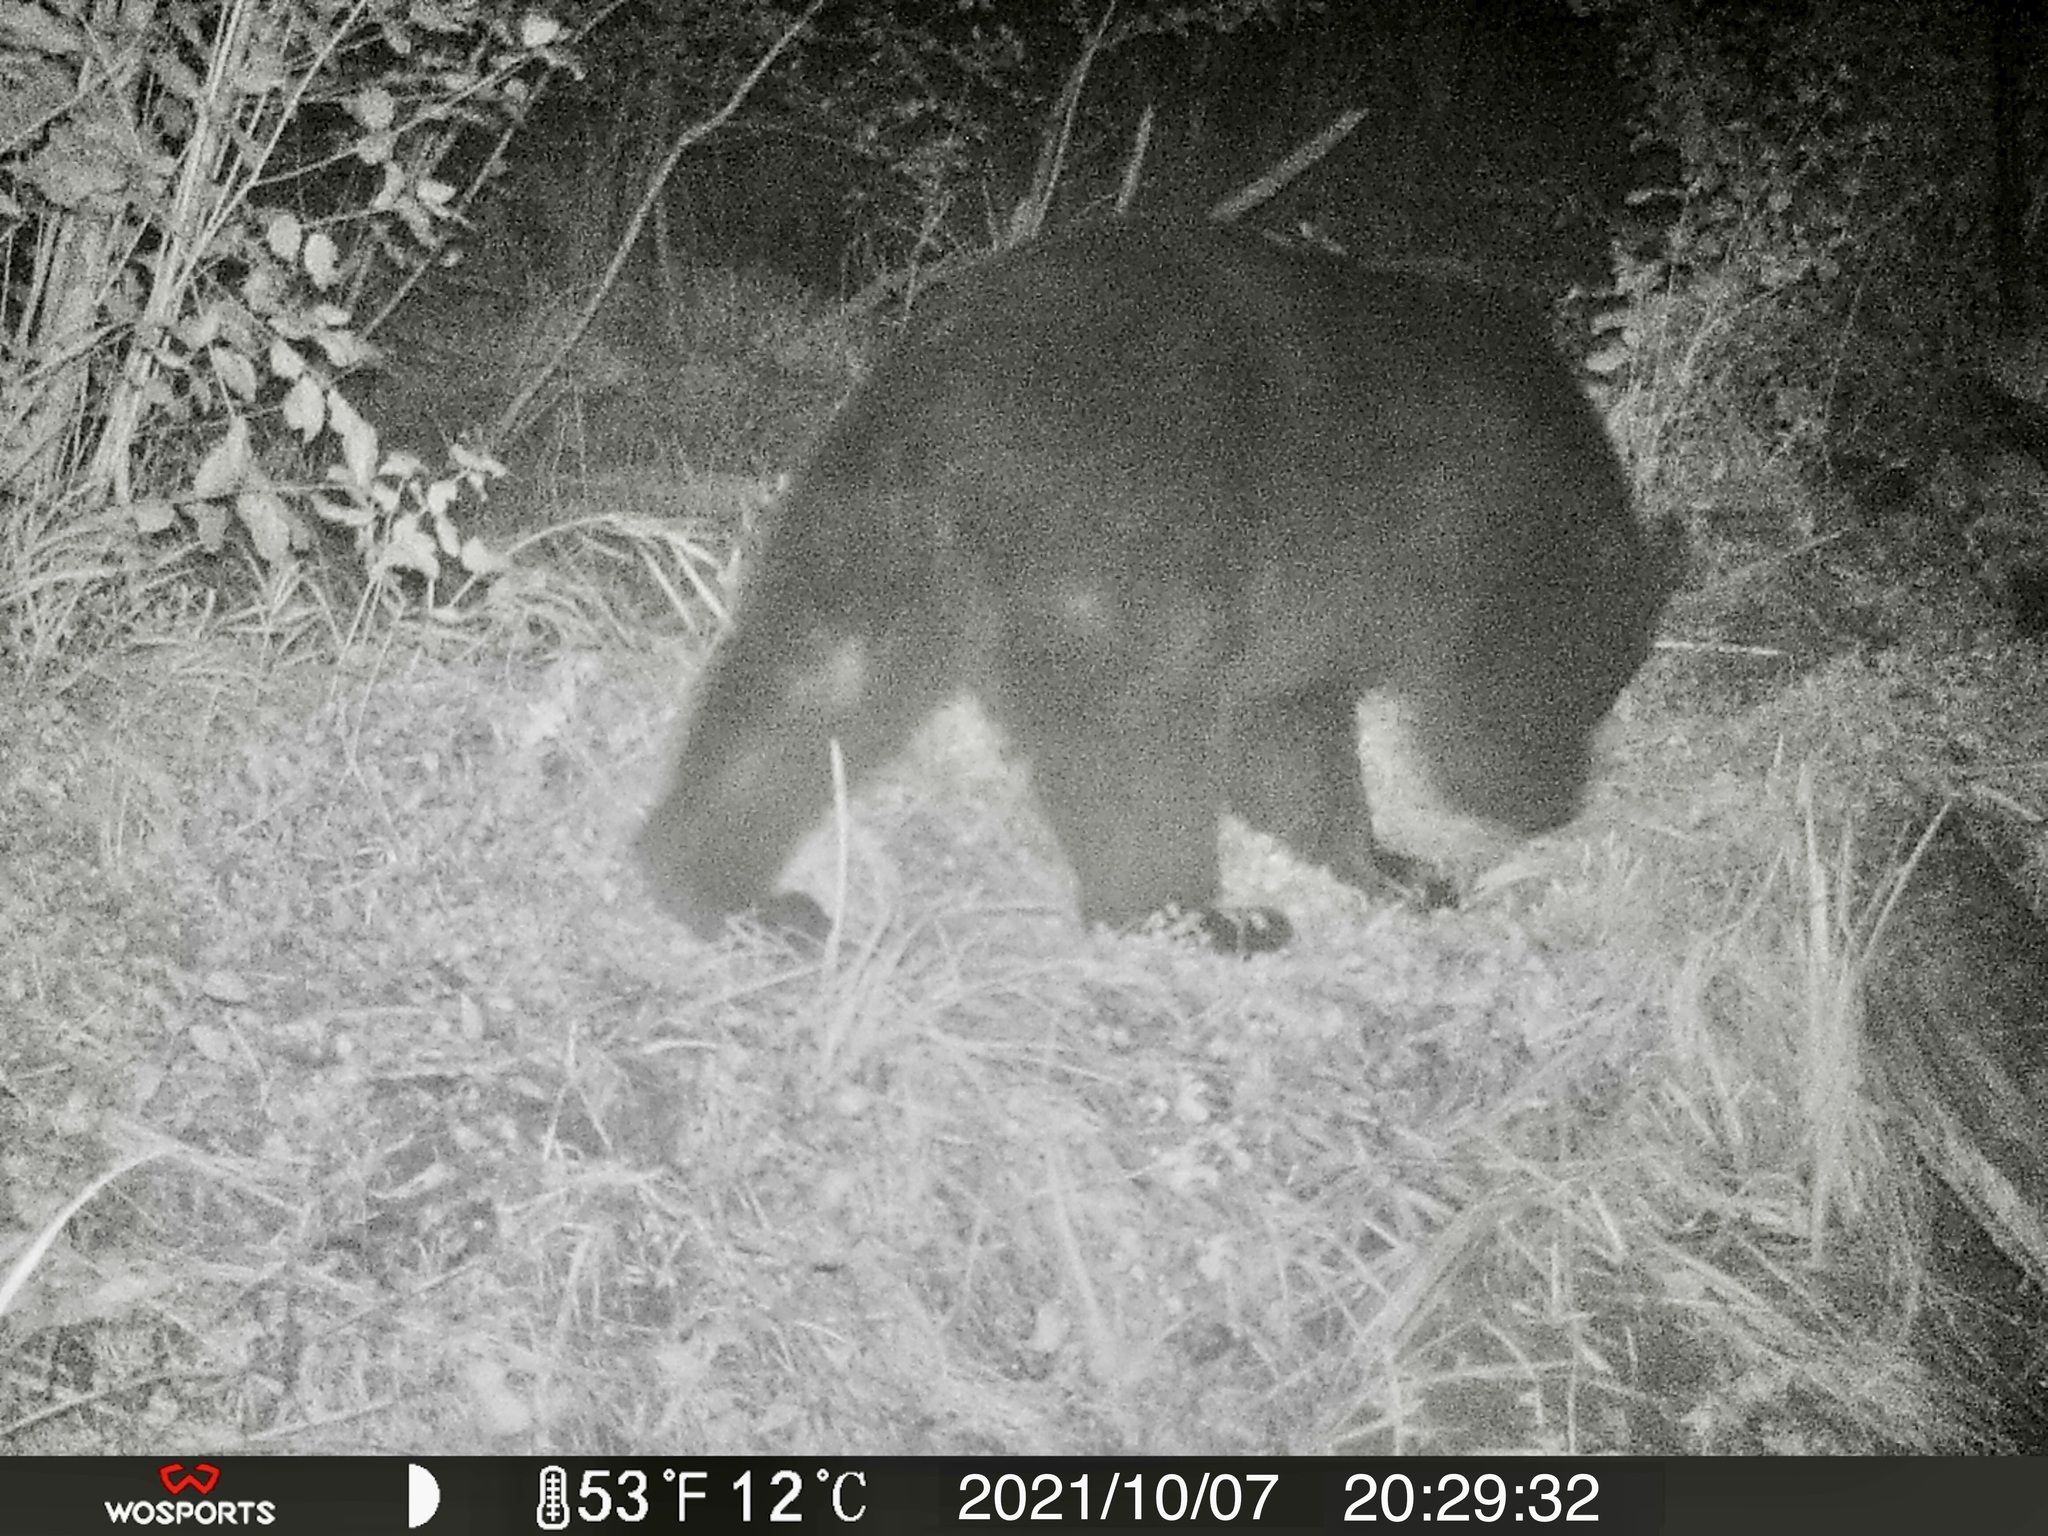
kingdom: Animalia
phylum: Chordata
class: Mammalia
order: Carnivora
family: Ursidae
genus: Ursus
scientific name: Ursus americanus
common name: American black bear
